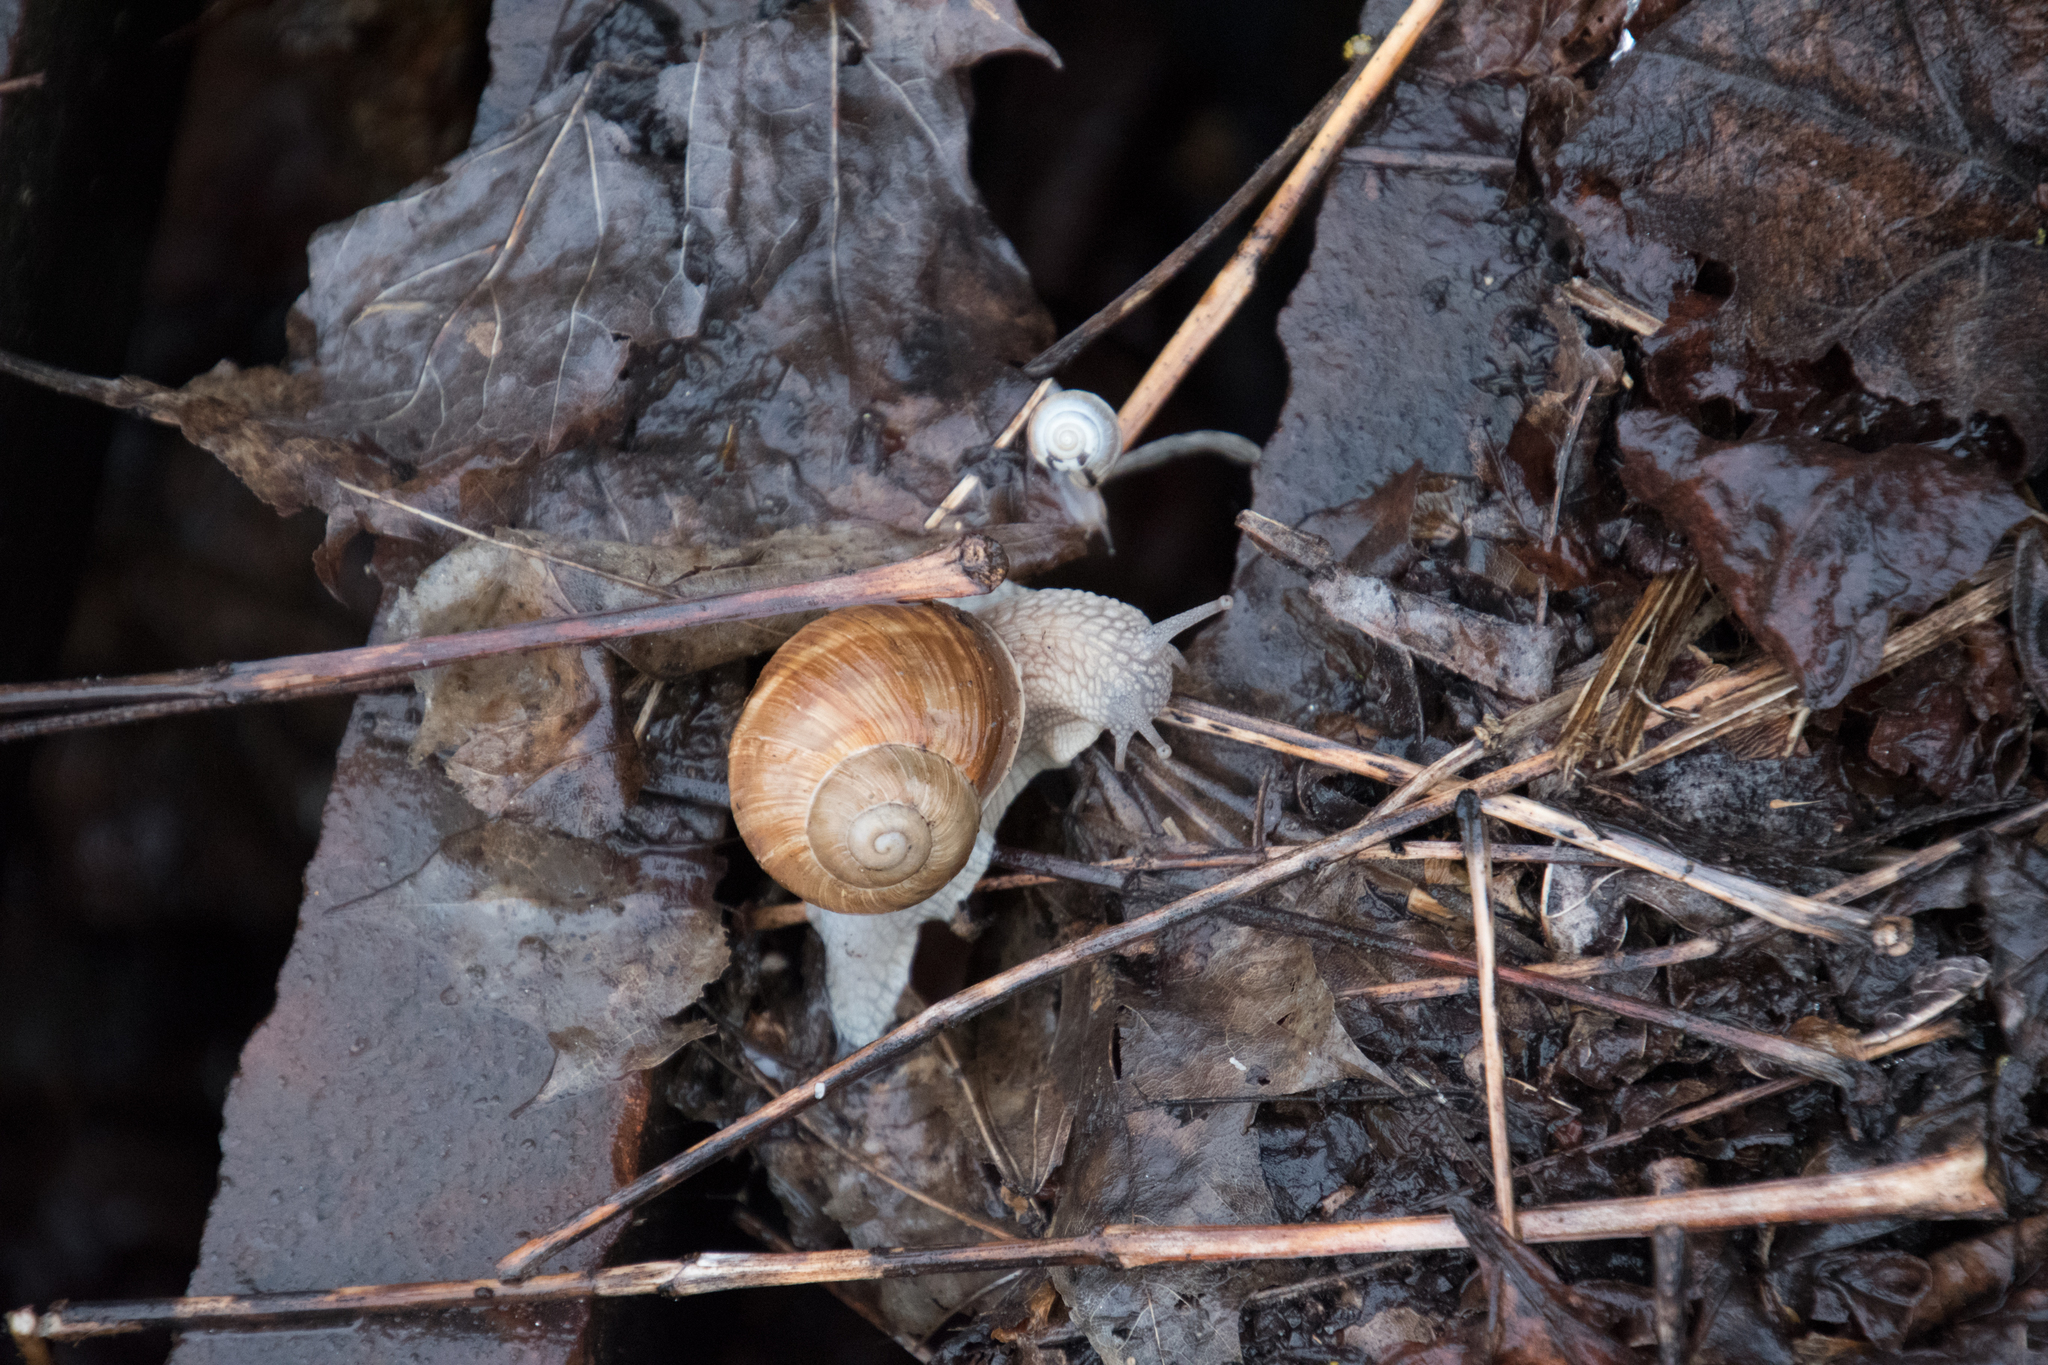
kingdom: Animalia
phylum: Mollusca
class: Gastropoda
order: Stylommatophora
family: Helicidae
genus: Helix
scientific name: Helix pomatia
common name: Roman snail
